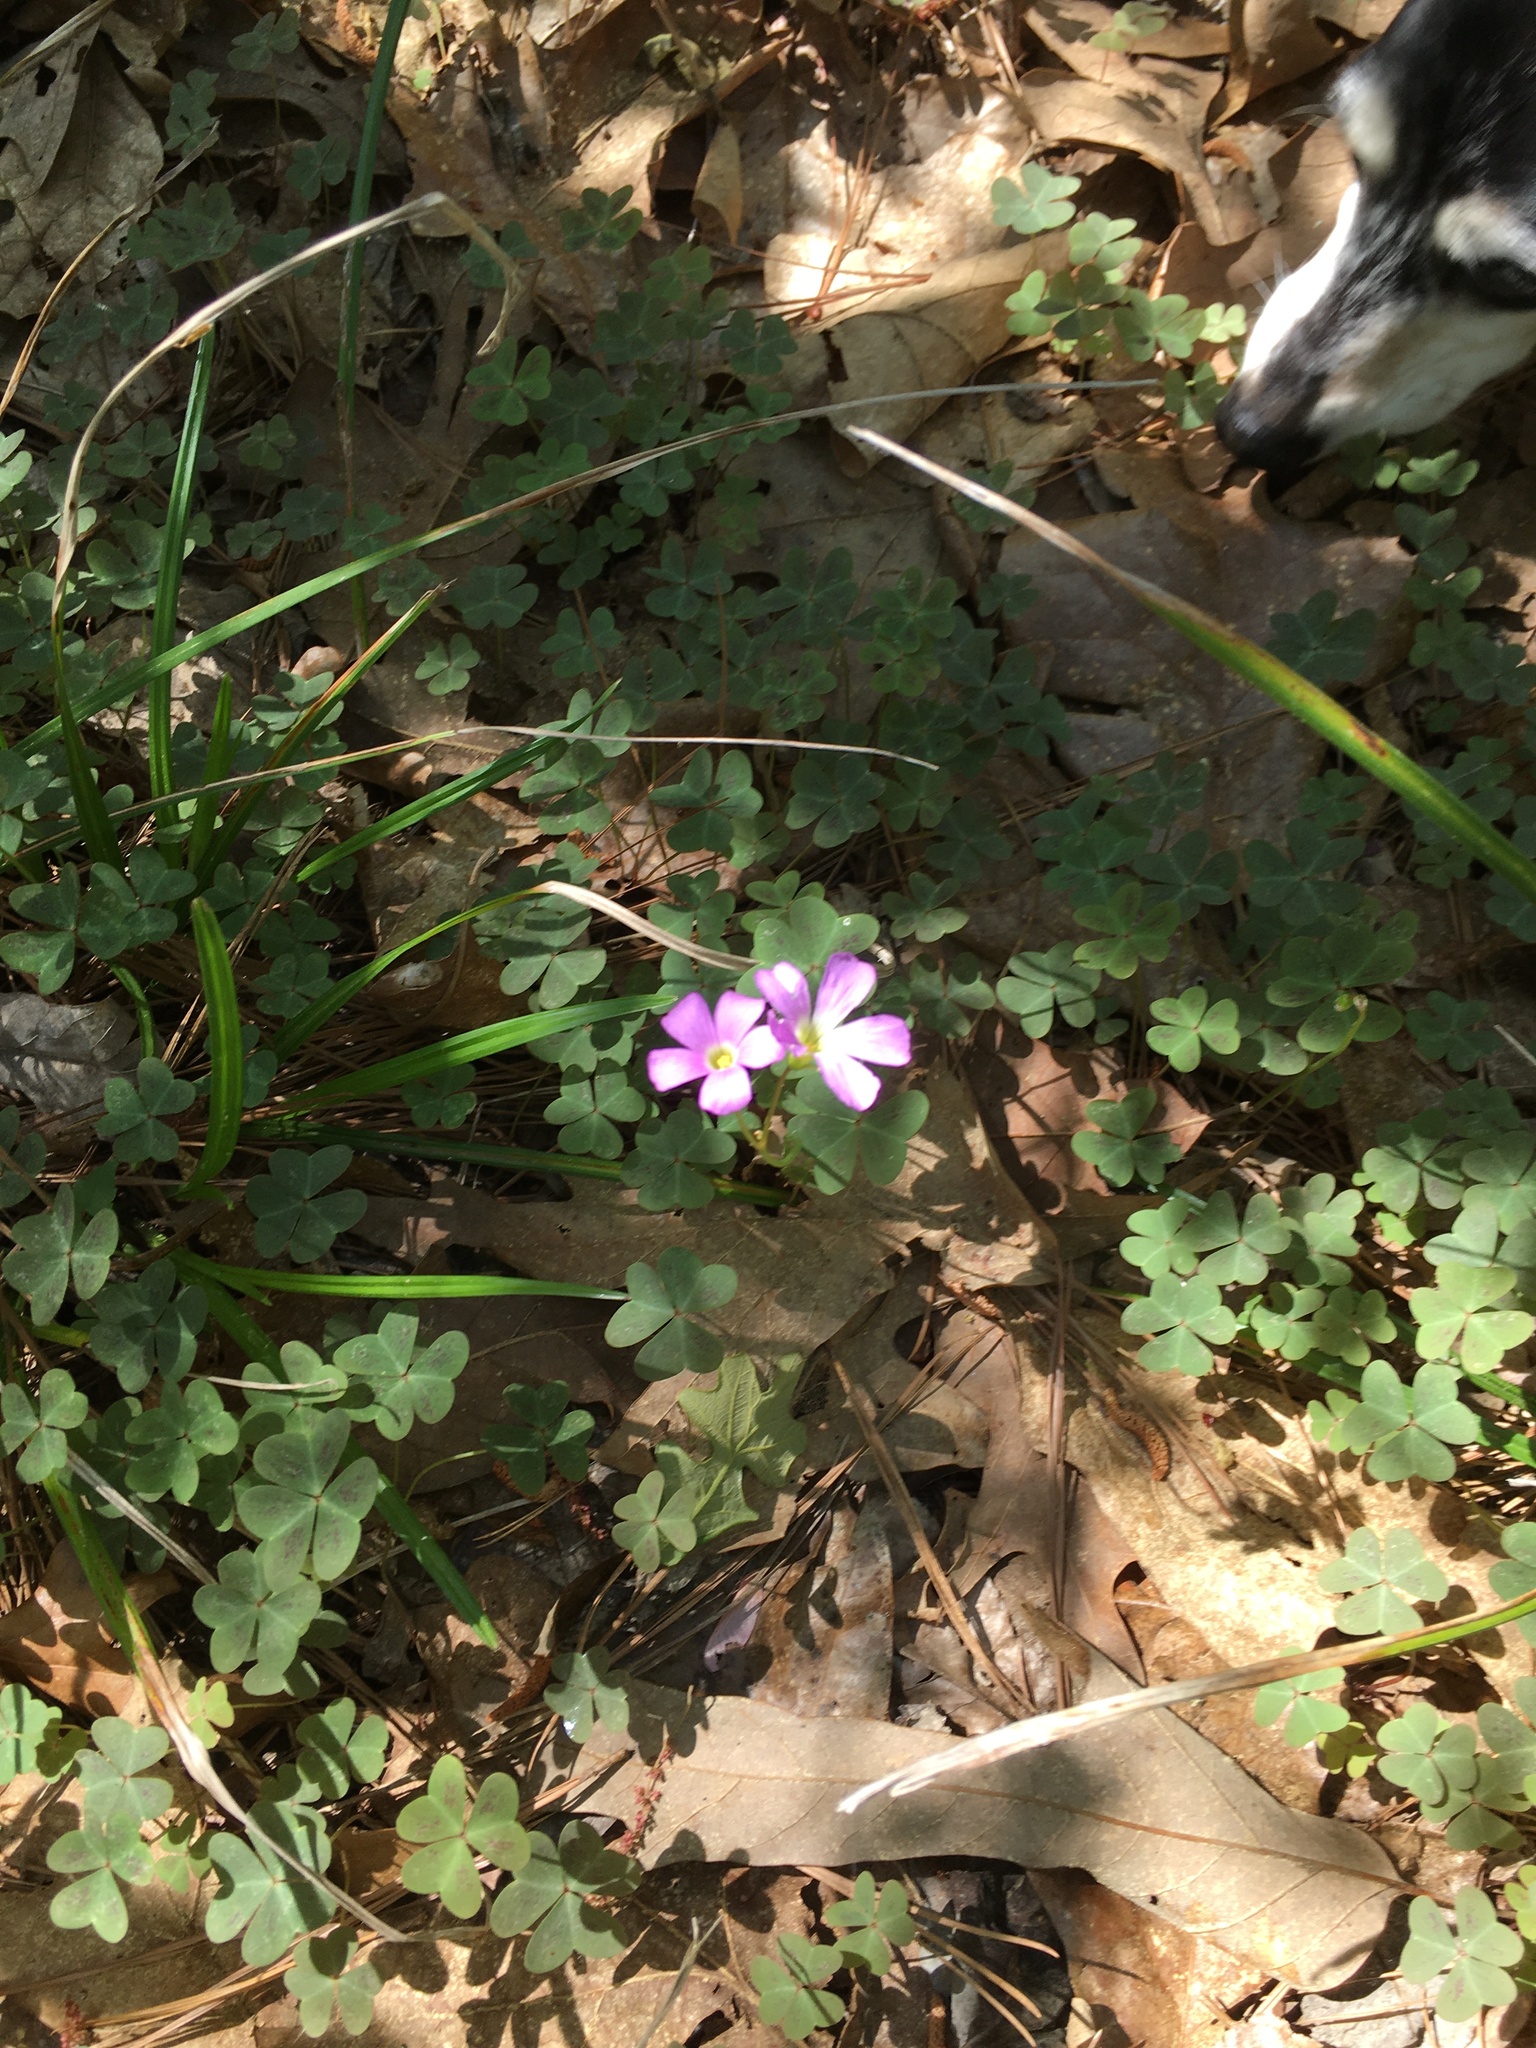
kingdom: Plantae
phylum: Tracheophyta
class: Magnoliopsida
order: Oxalidales
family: Oxalidaceae
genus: Oxalis
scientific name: Oxalis violacea
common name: Violet wood-sorrel
